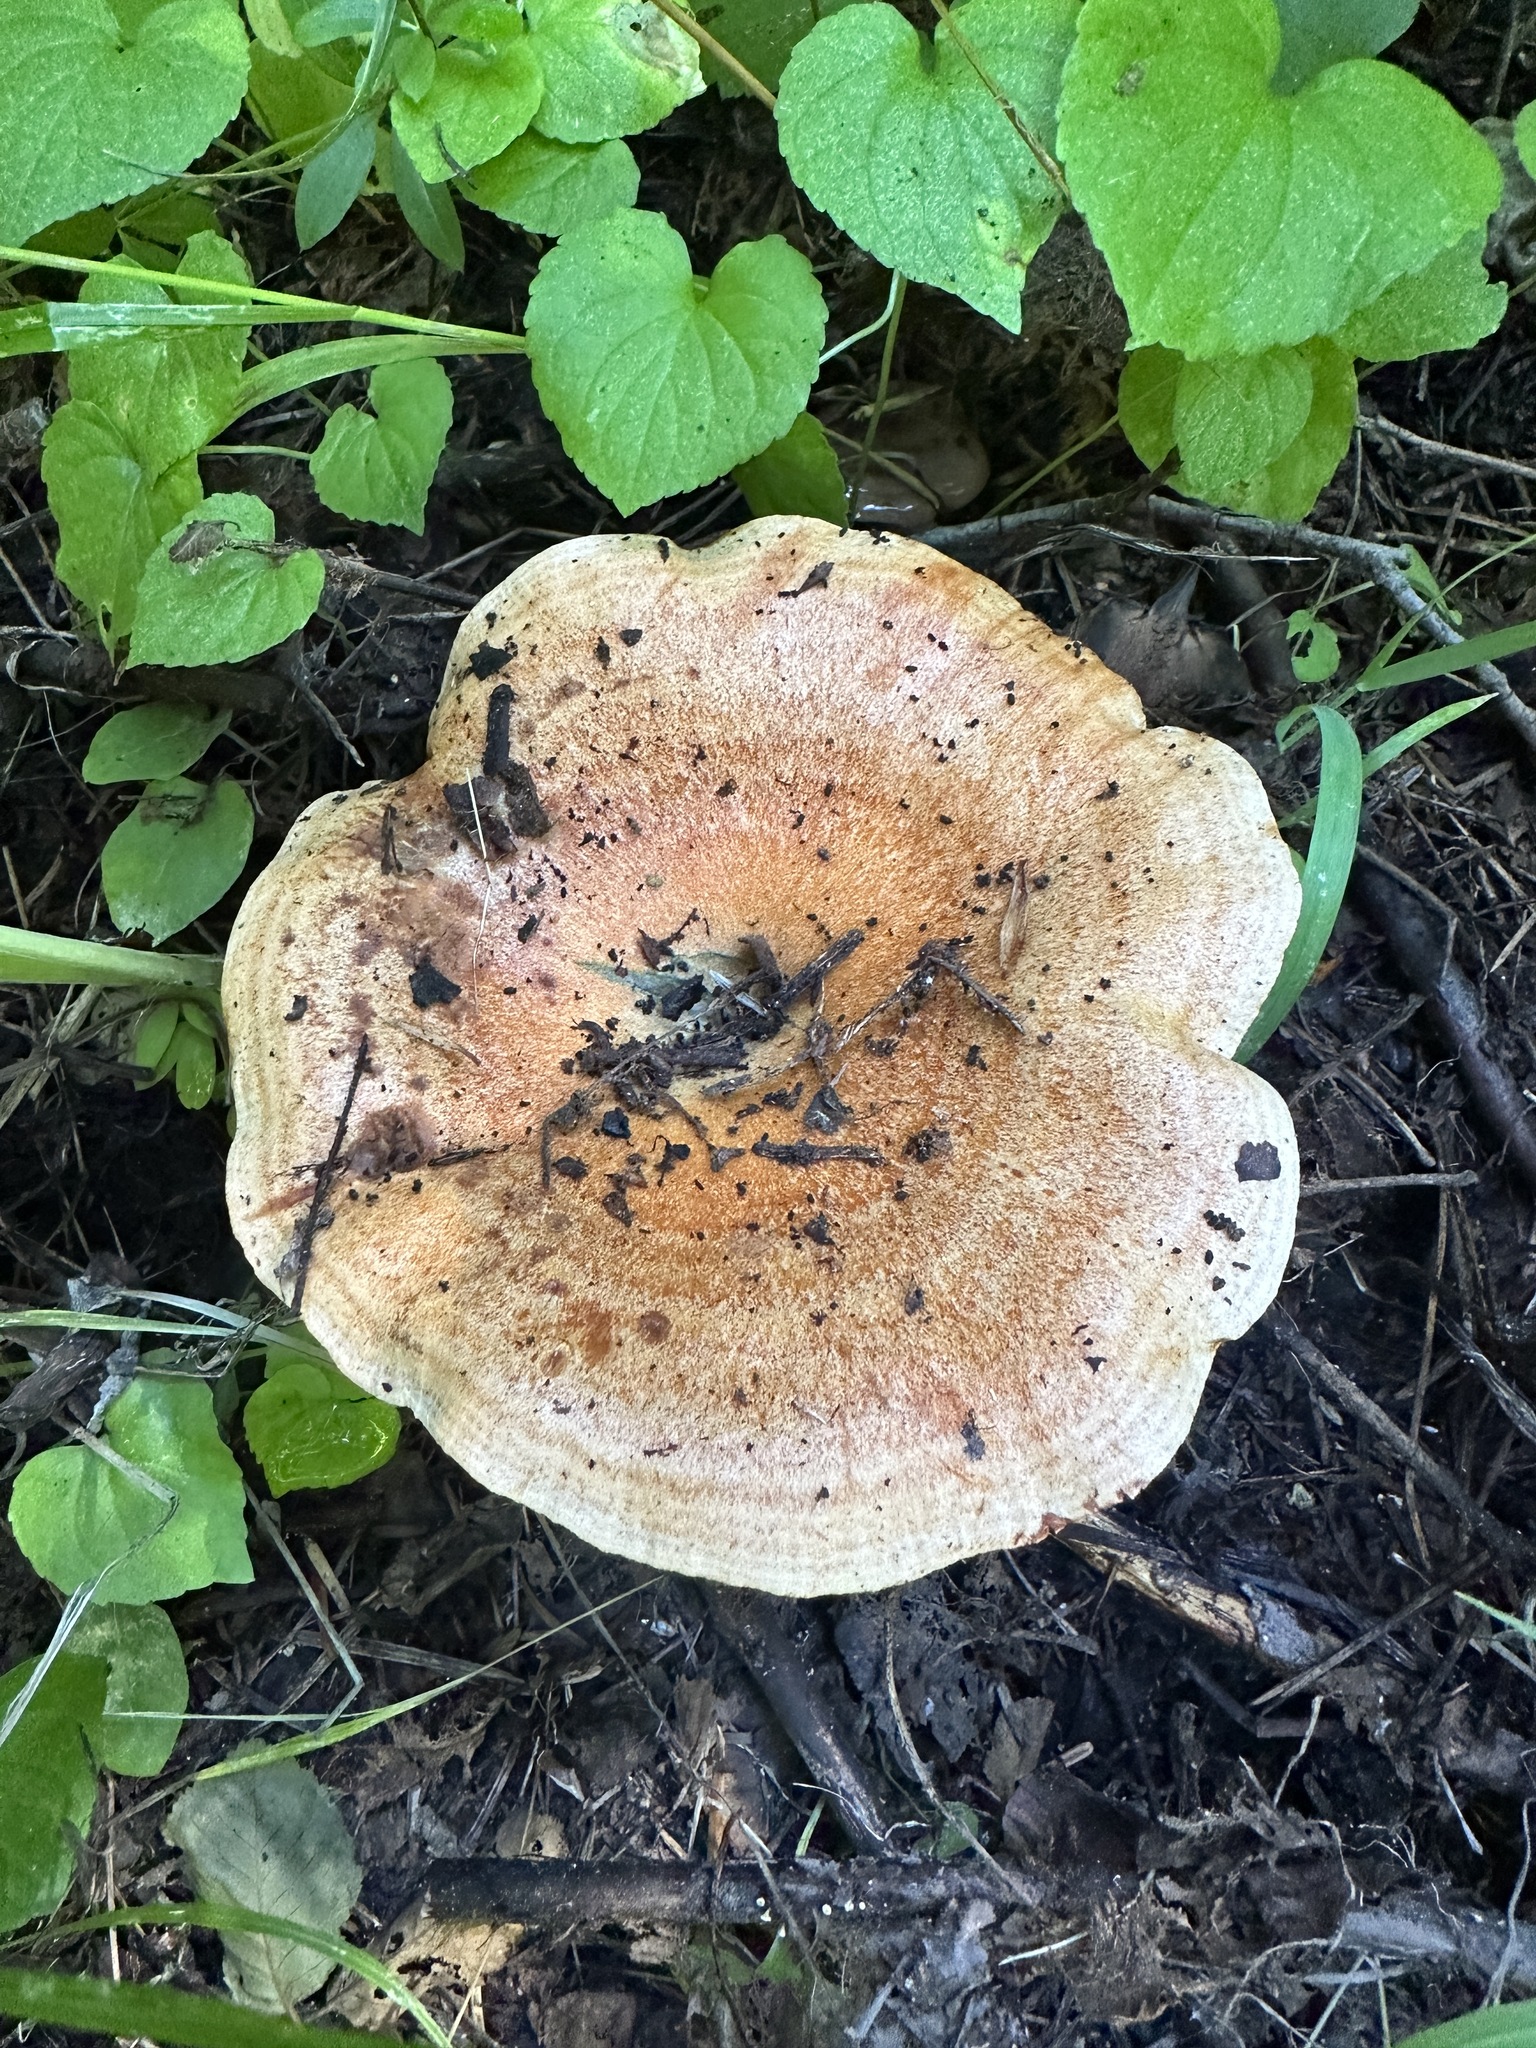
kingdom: Fungi
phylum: Basidiomycota
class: Agaricomycetes
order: Russulales
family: Russulaceae
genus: Lactarius
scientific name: Lactarius rubrilacteus
